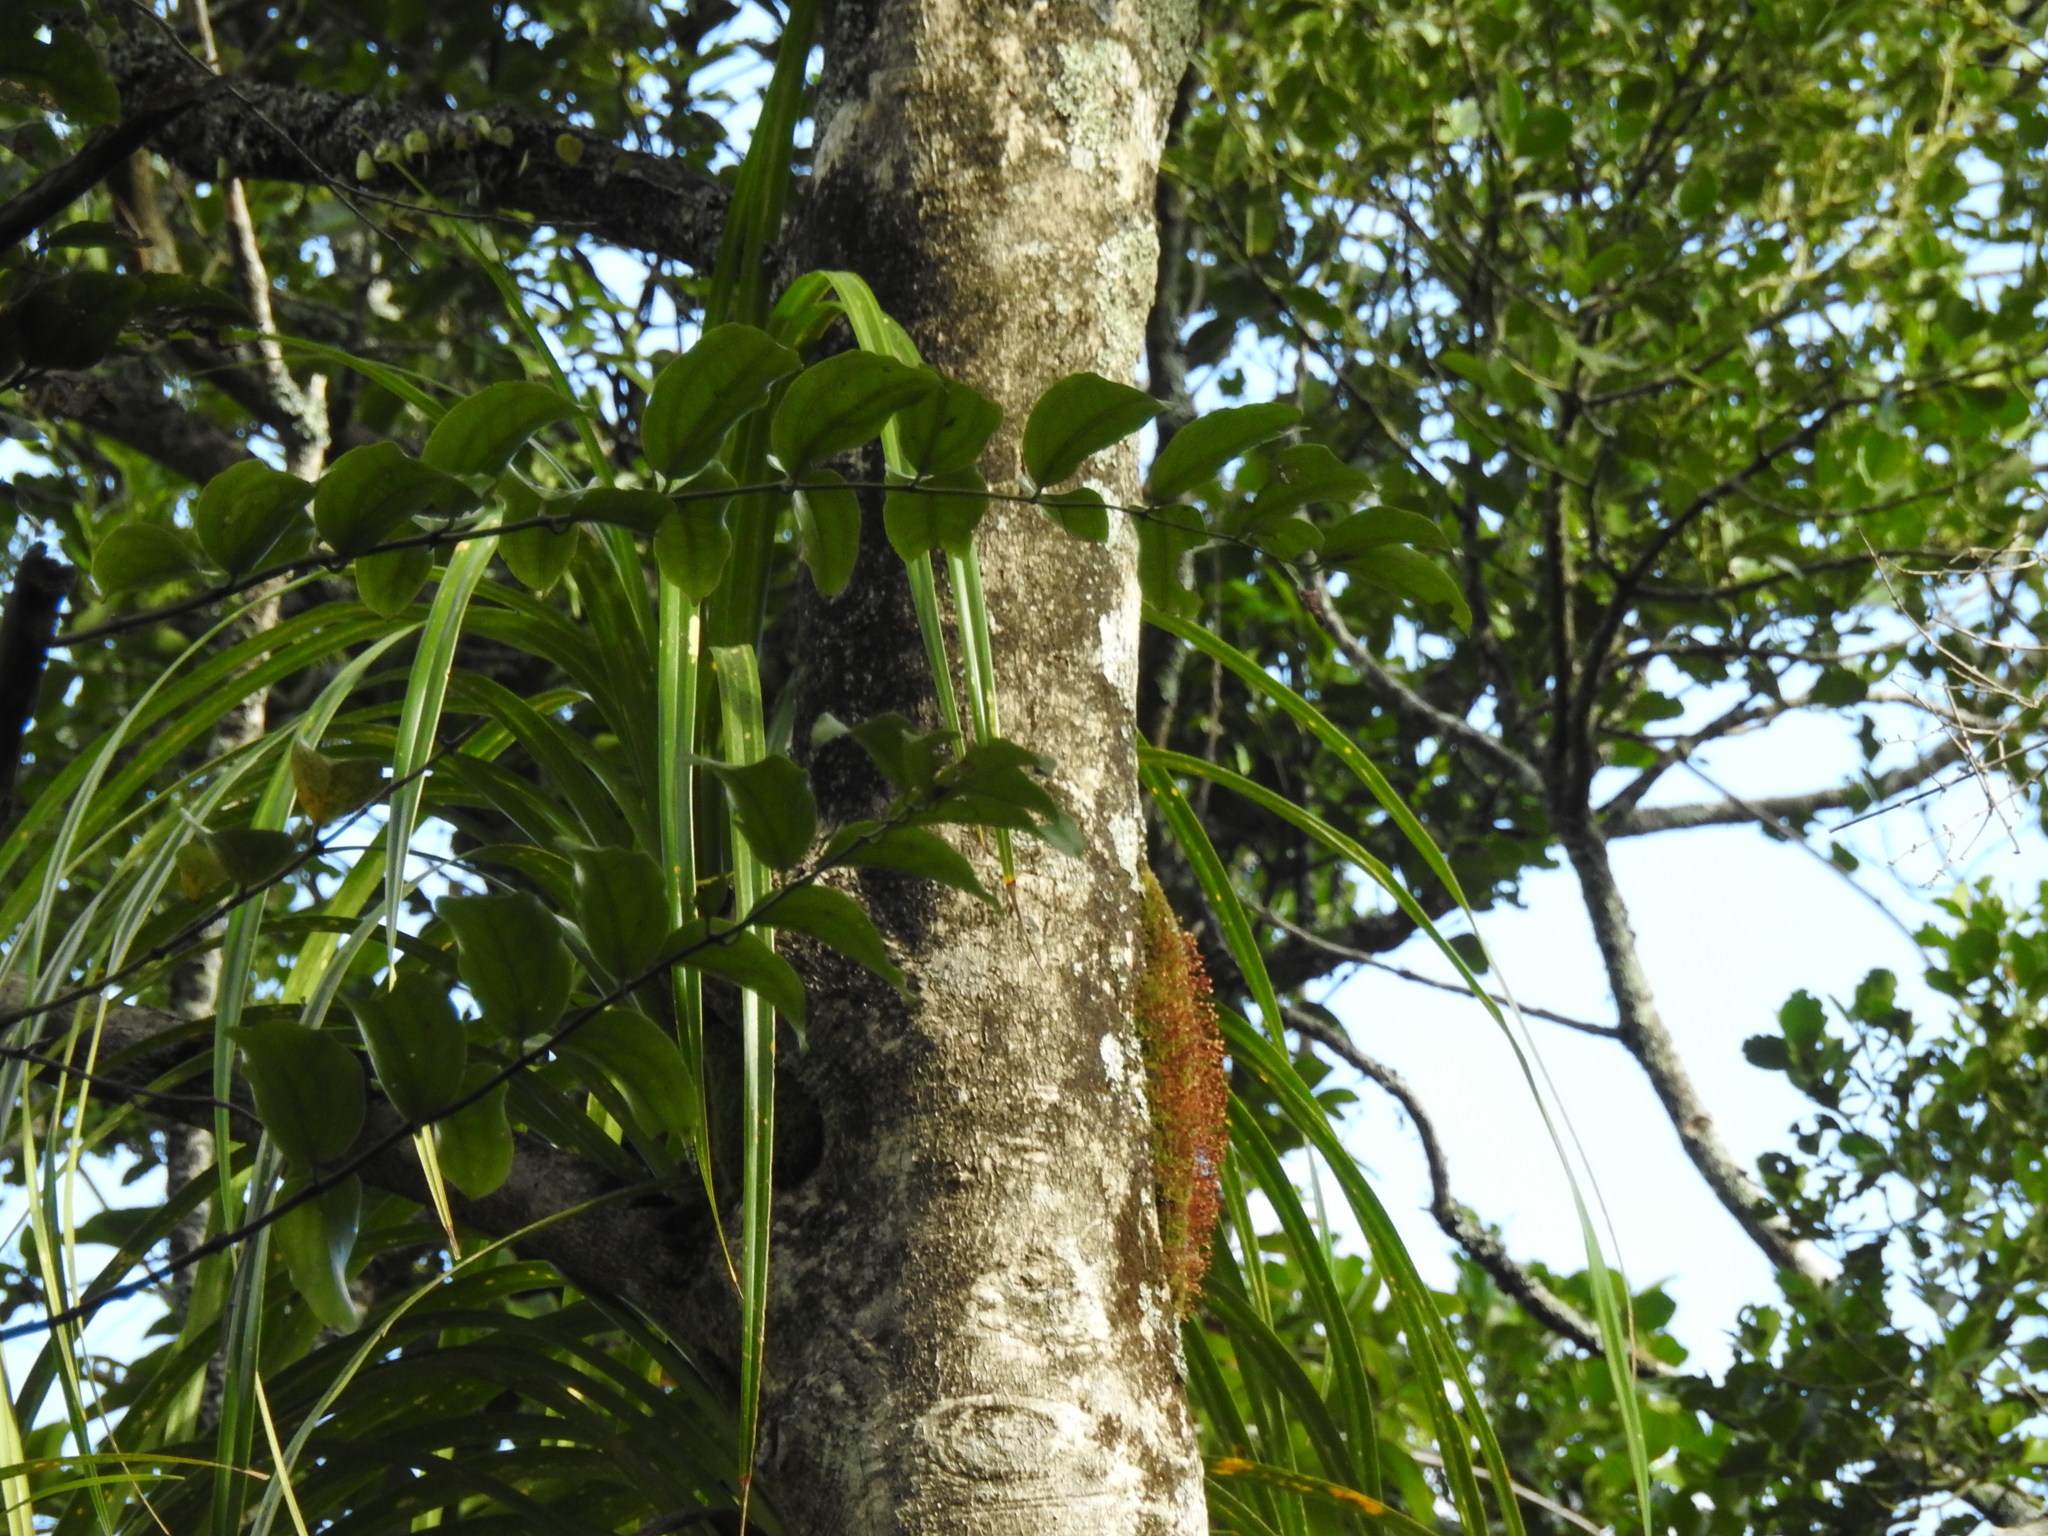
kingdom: Plantae
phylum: Tracheophyta
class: Liliopsida
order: Asparagales
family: Asteliaceae
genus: Astelia
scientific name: Astelia hastata
